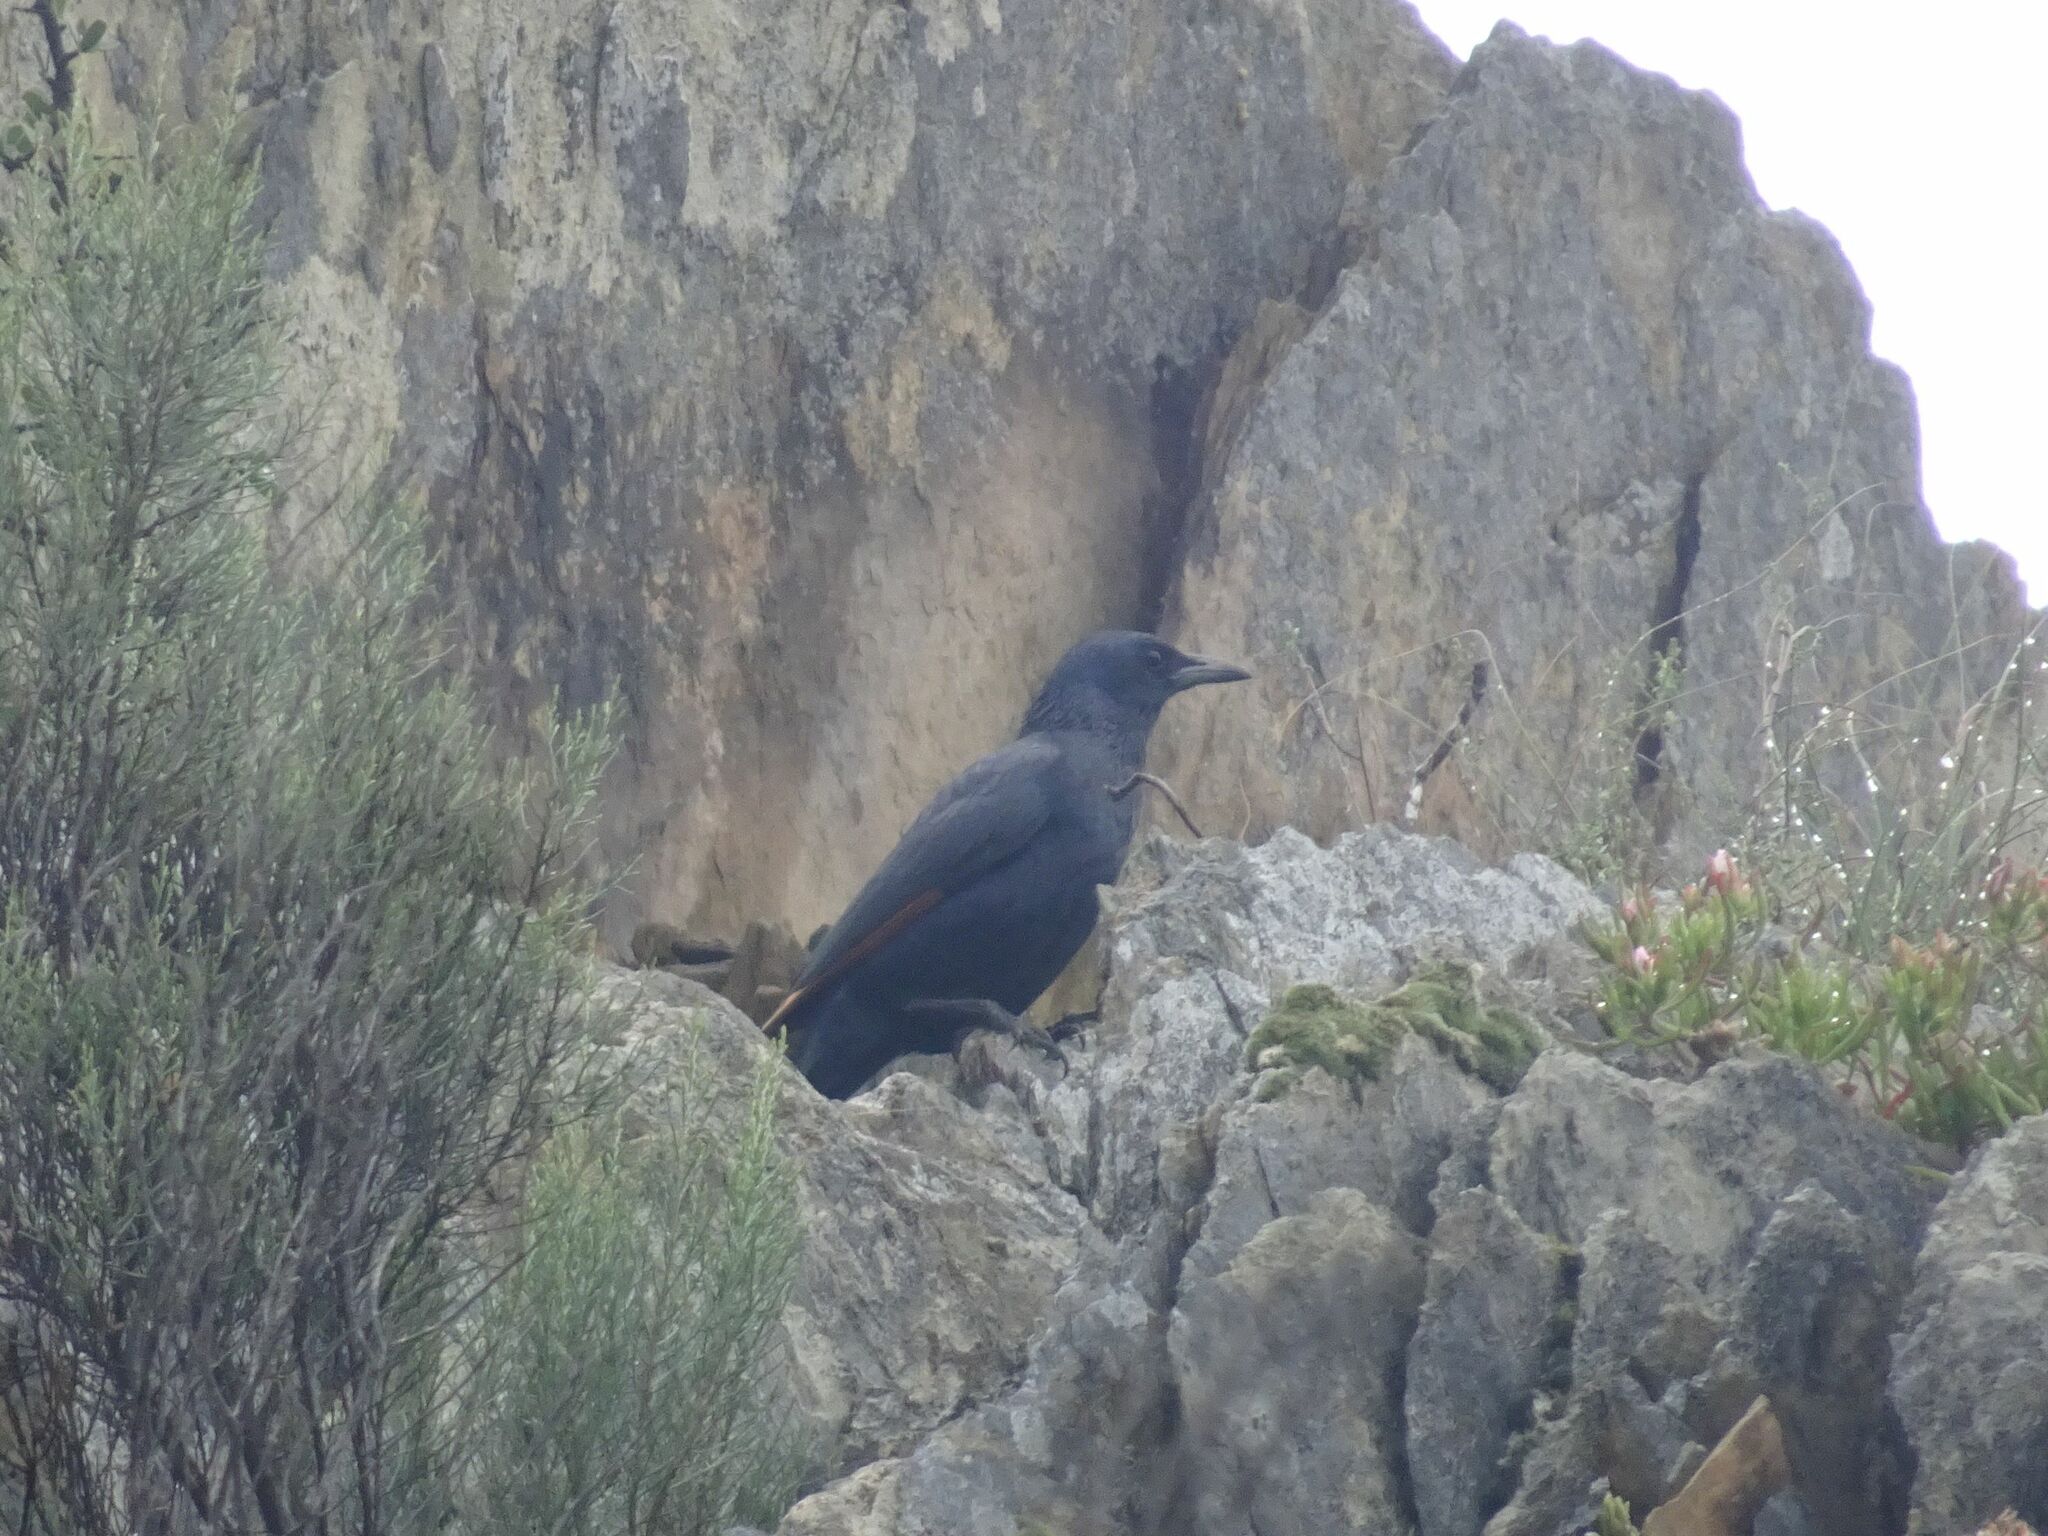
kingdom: Animalia
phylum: Chordata
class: Aves
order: Passeriformes
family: Sturnidae
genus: Onychognathus
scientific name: Onychognathus morio
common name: Red-winged starling
